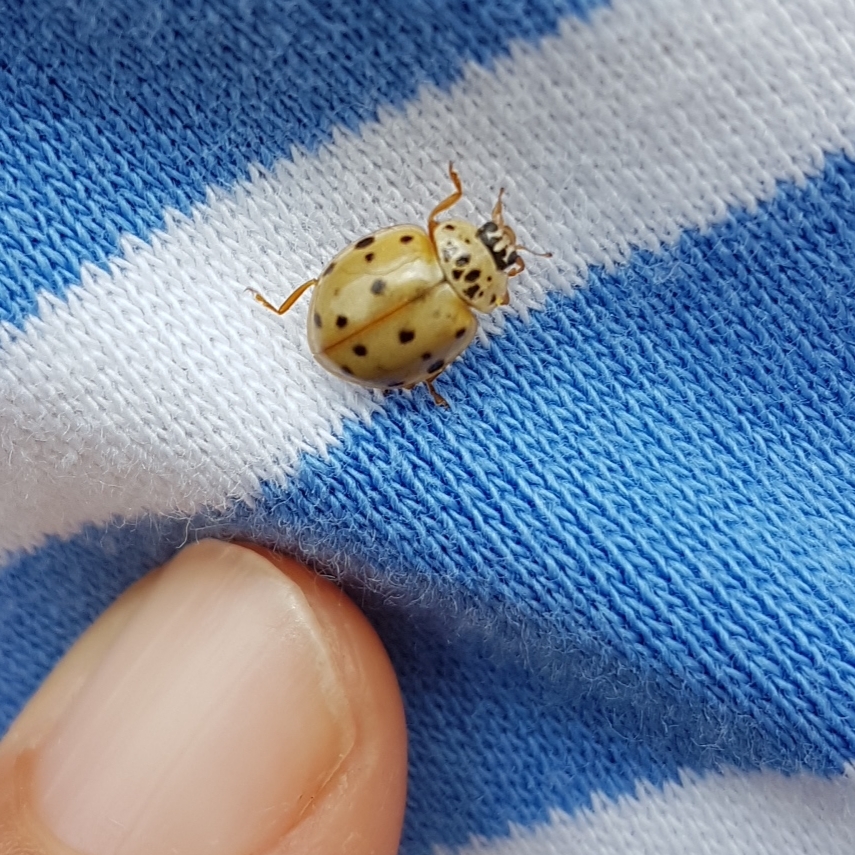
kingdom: Animalia
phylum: Arthropoda
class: Insecta
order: Coleoptera
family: Coccinellidae
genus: Harmonia
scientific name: Harmonia quadripunctata
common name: Cream-streaked ladybird
